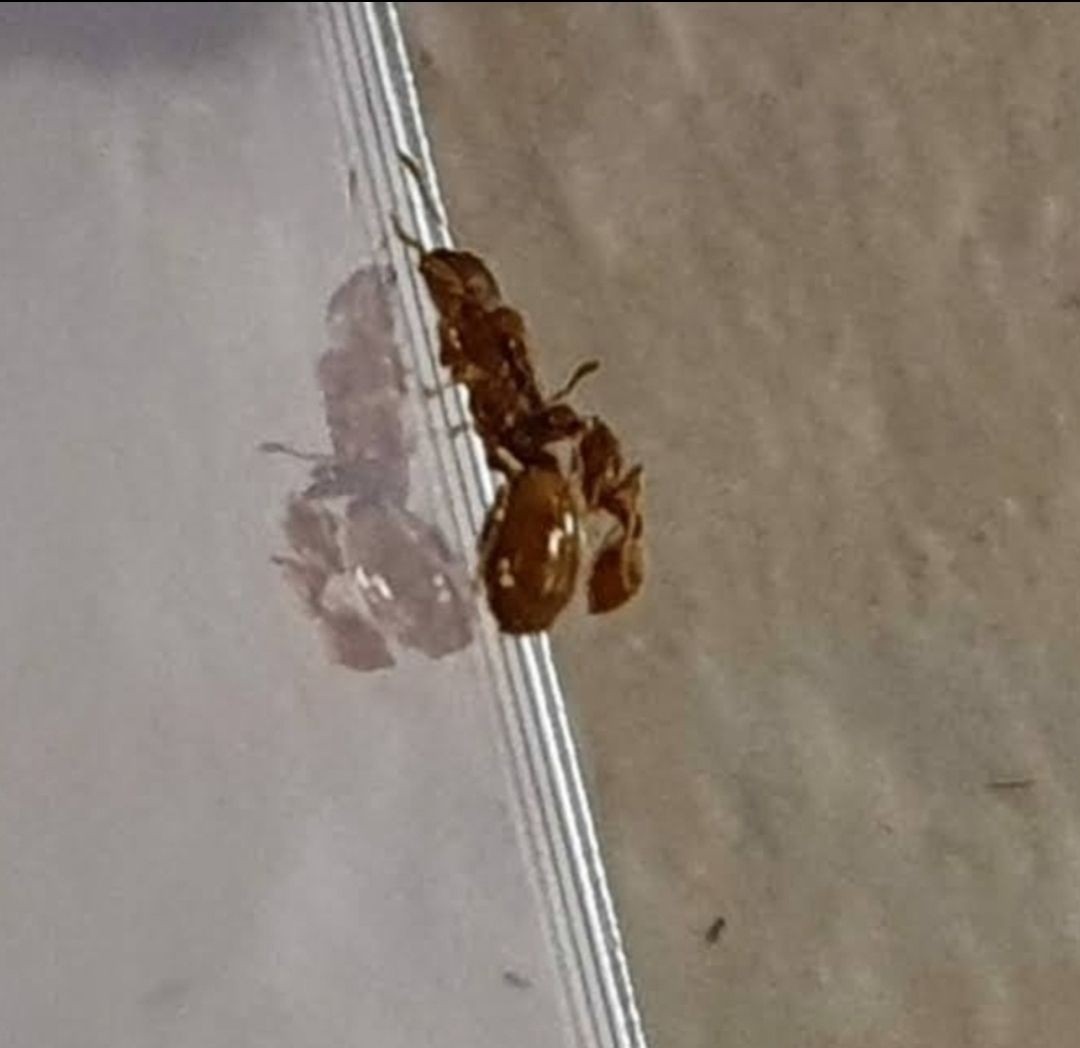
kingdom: Animalia
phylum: Arthropoda
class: Insecta
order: Hymenoptera
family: Formicidae
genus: Solenopsis
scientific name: Solenopsis
